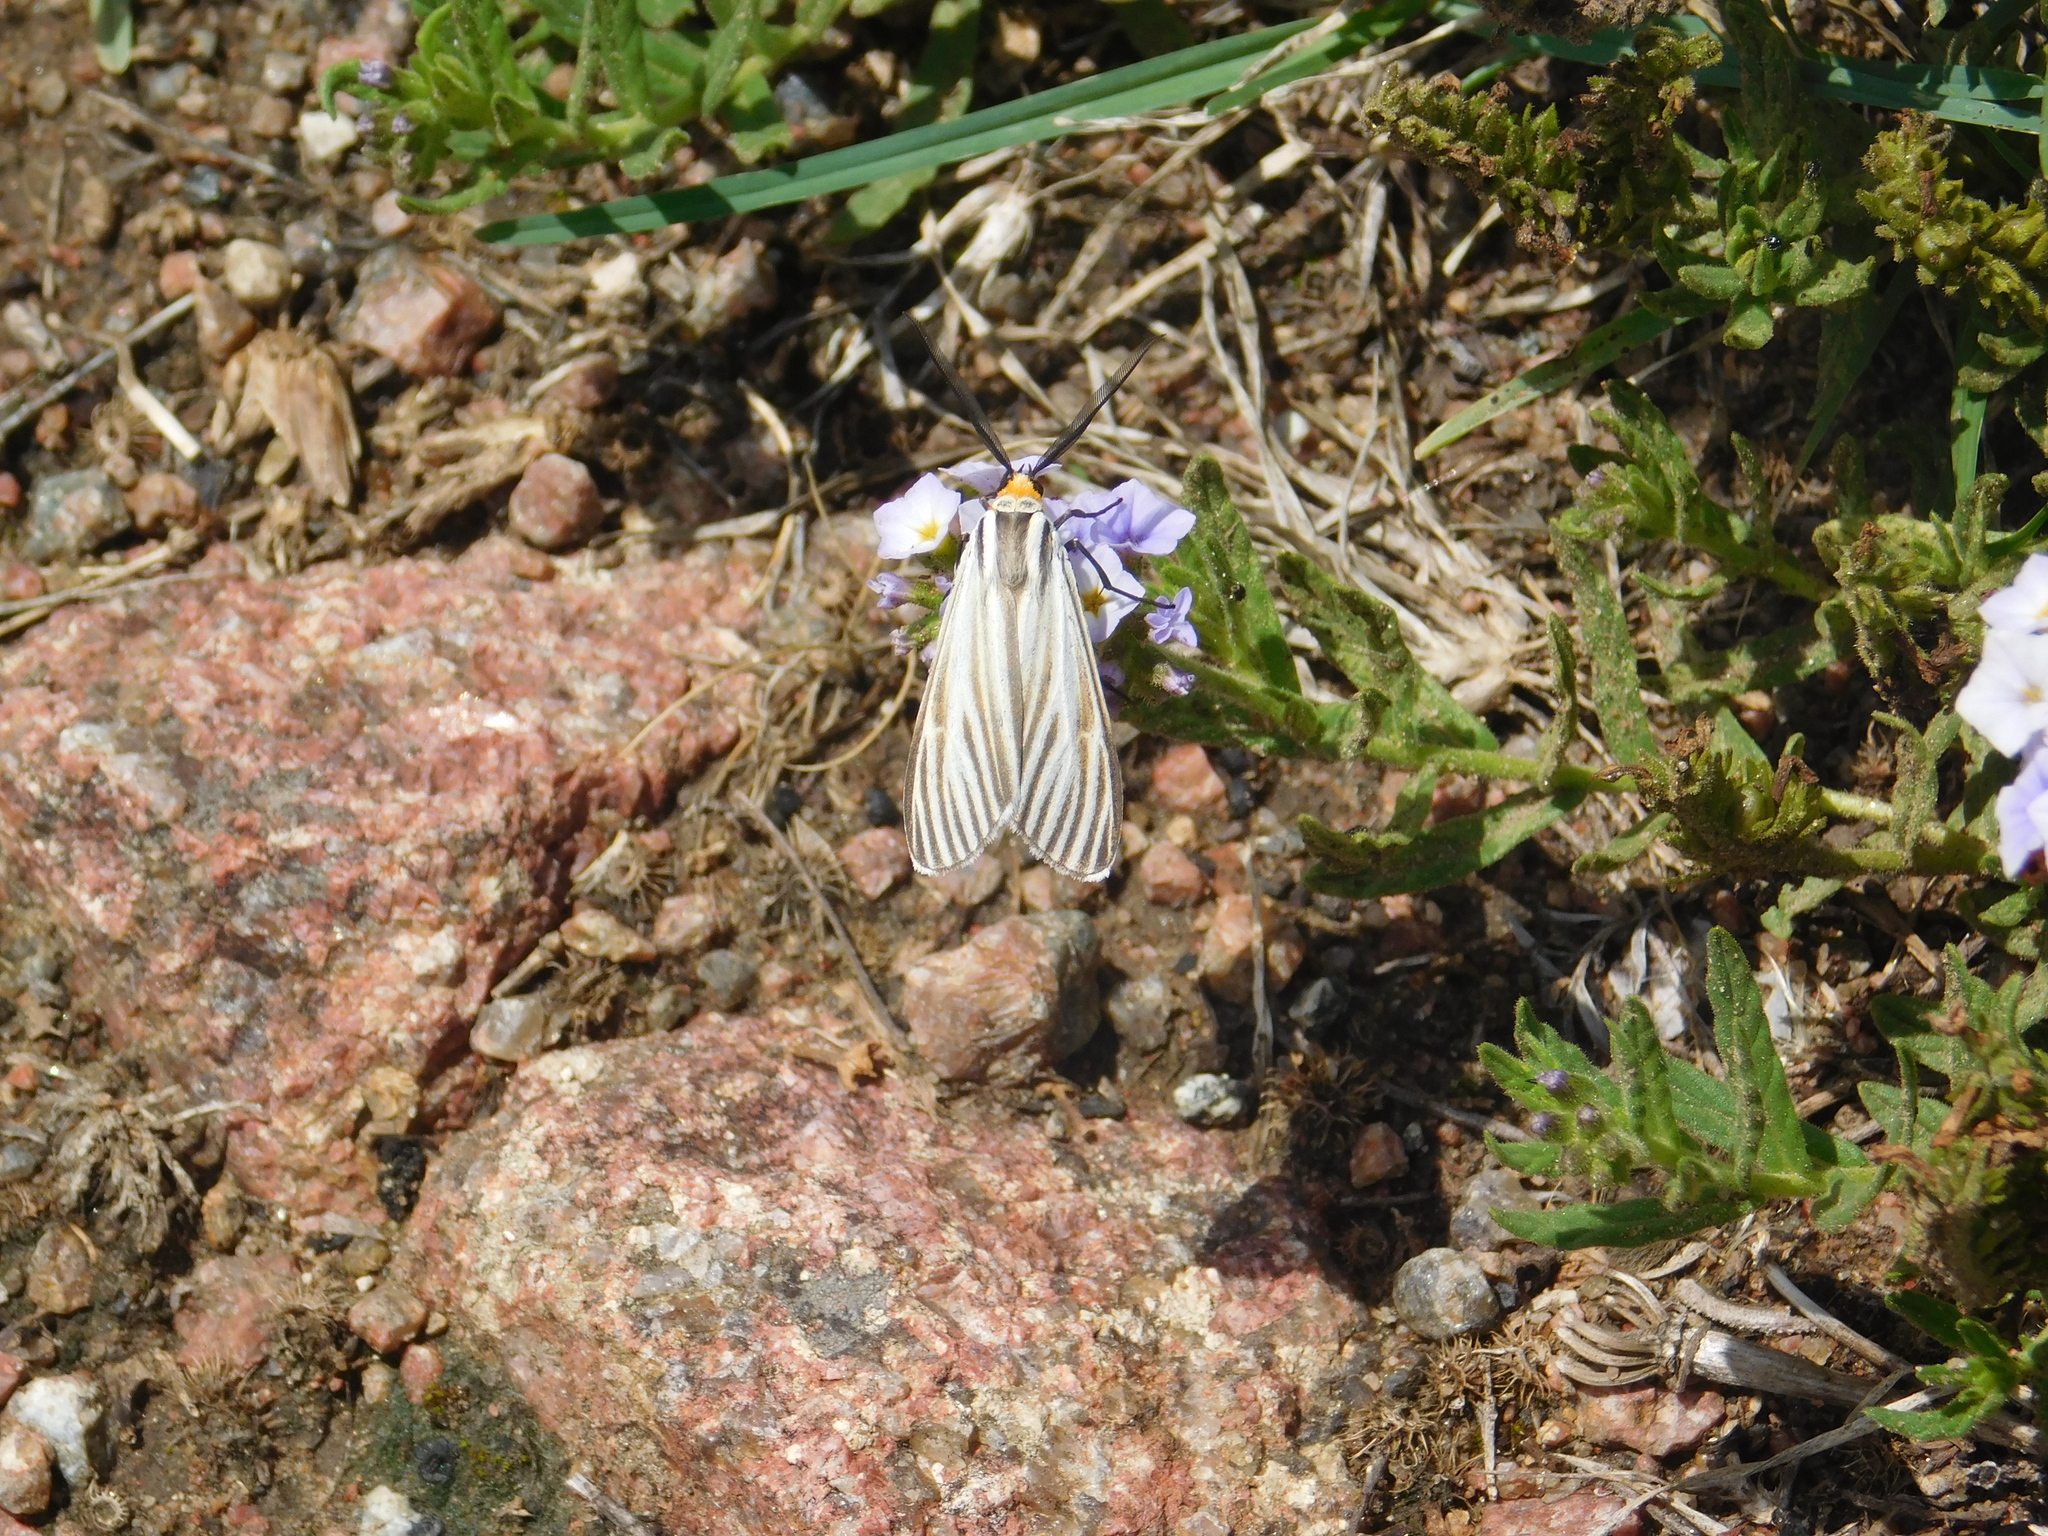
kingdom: Animalia
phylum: Arthropoda
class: Insecta
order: Lepidoptera
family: Erebidae
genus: Ctenucha
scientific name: Ctenucha vittigerum
